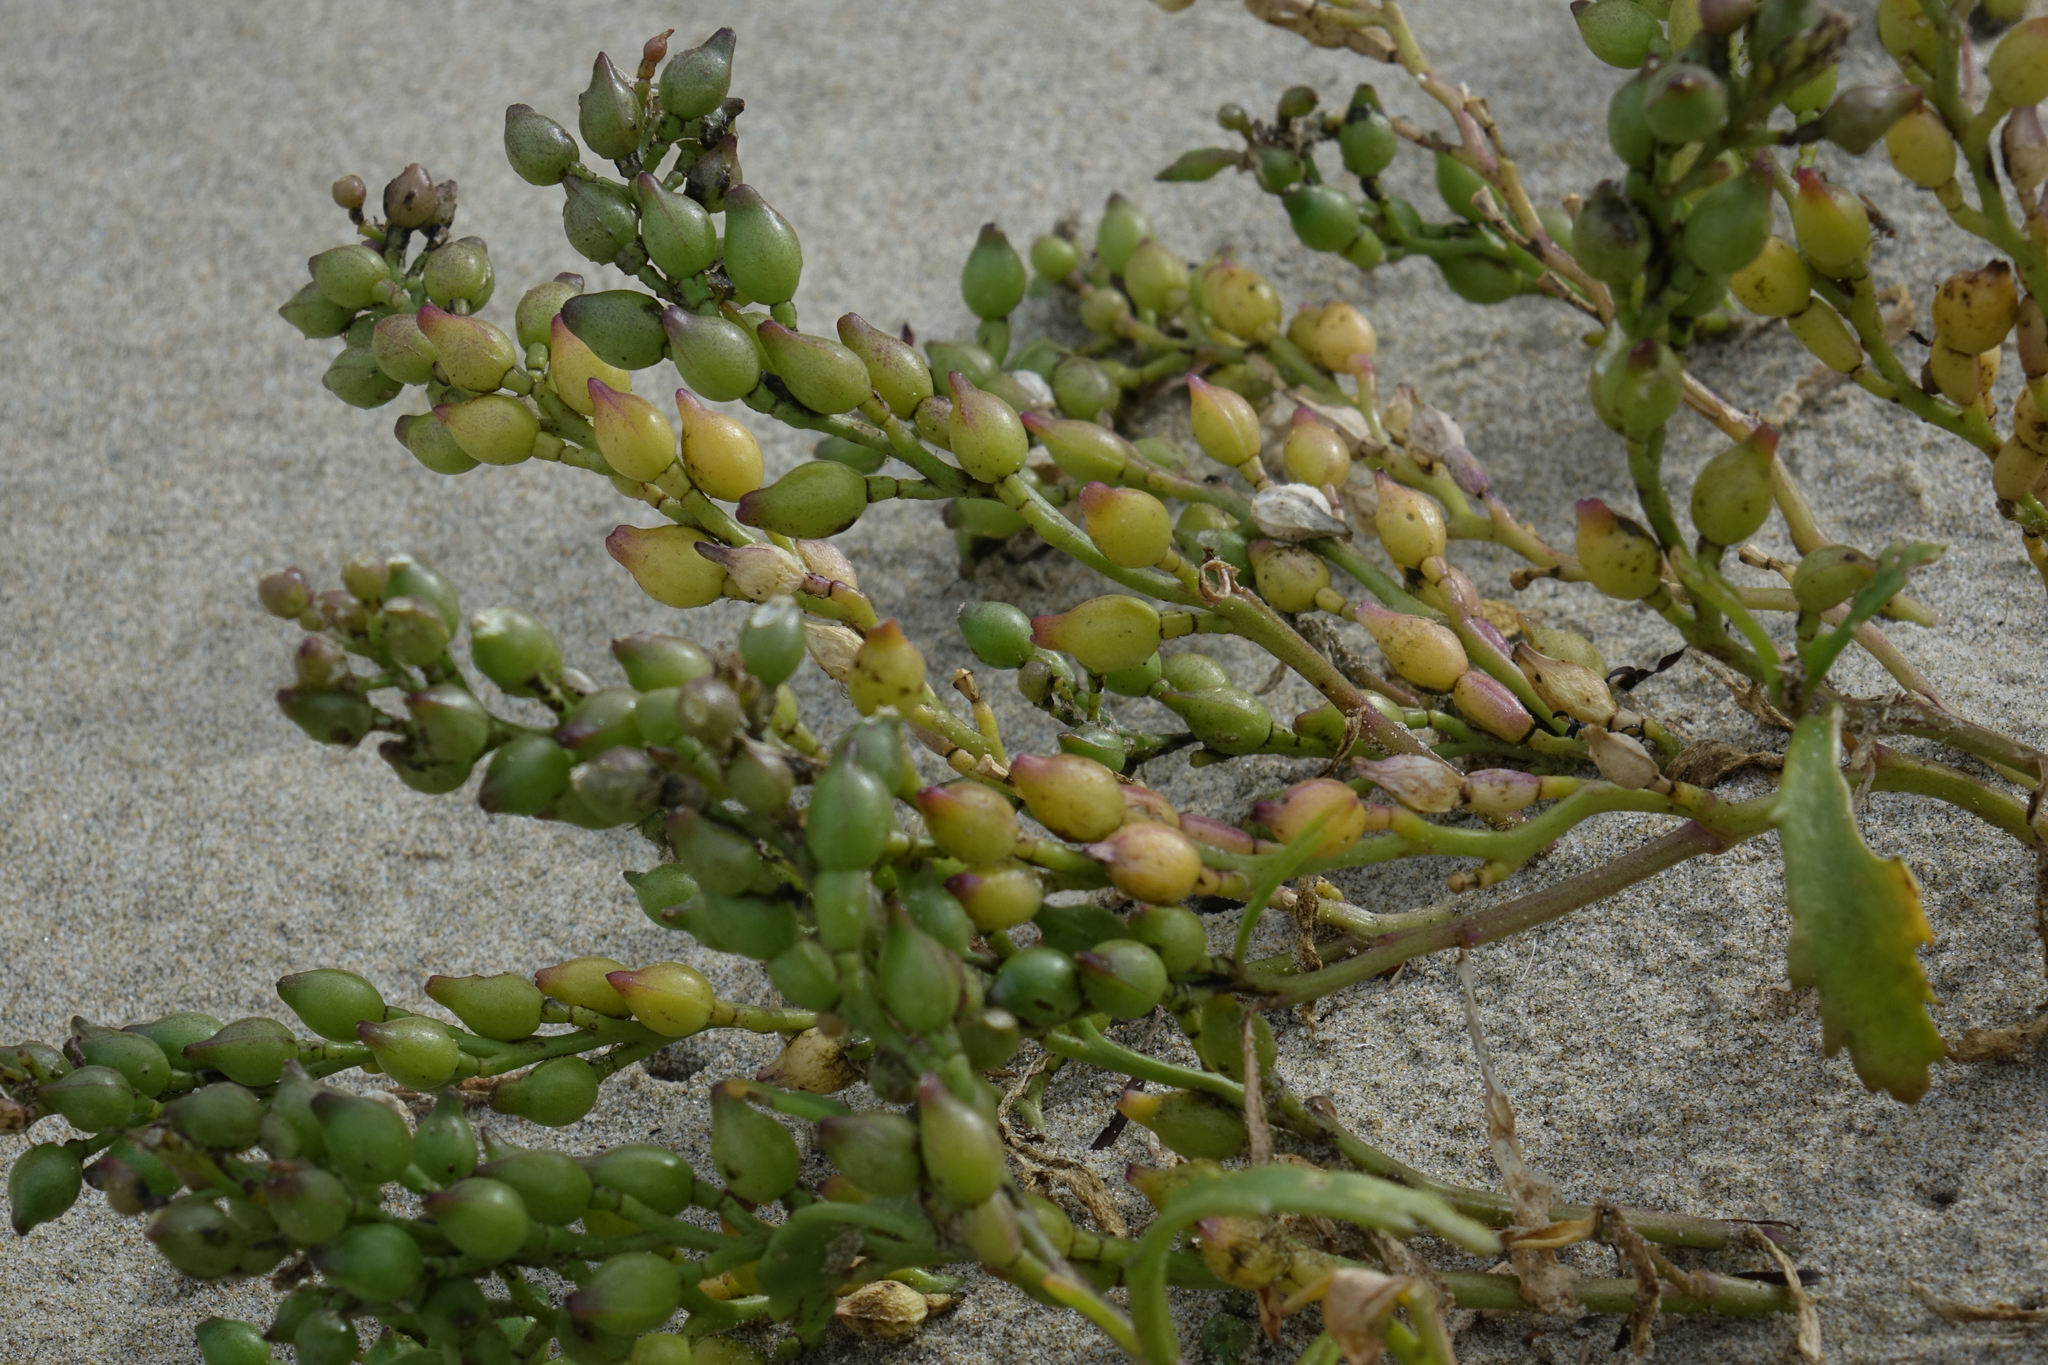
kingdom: Plantae
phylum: Tracheophyta
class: Magnoliopsida
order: Brassicales
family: Brassicaceae
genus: Cakile
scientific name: Cakile edentula
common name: American sea rocket
